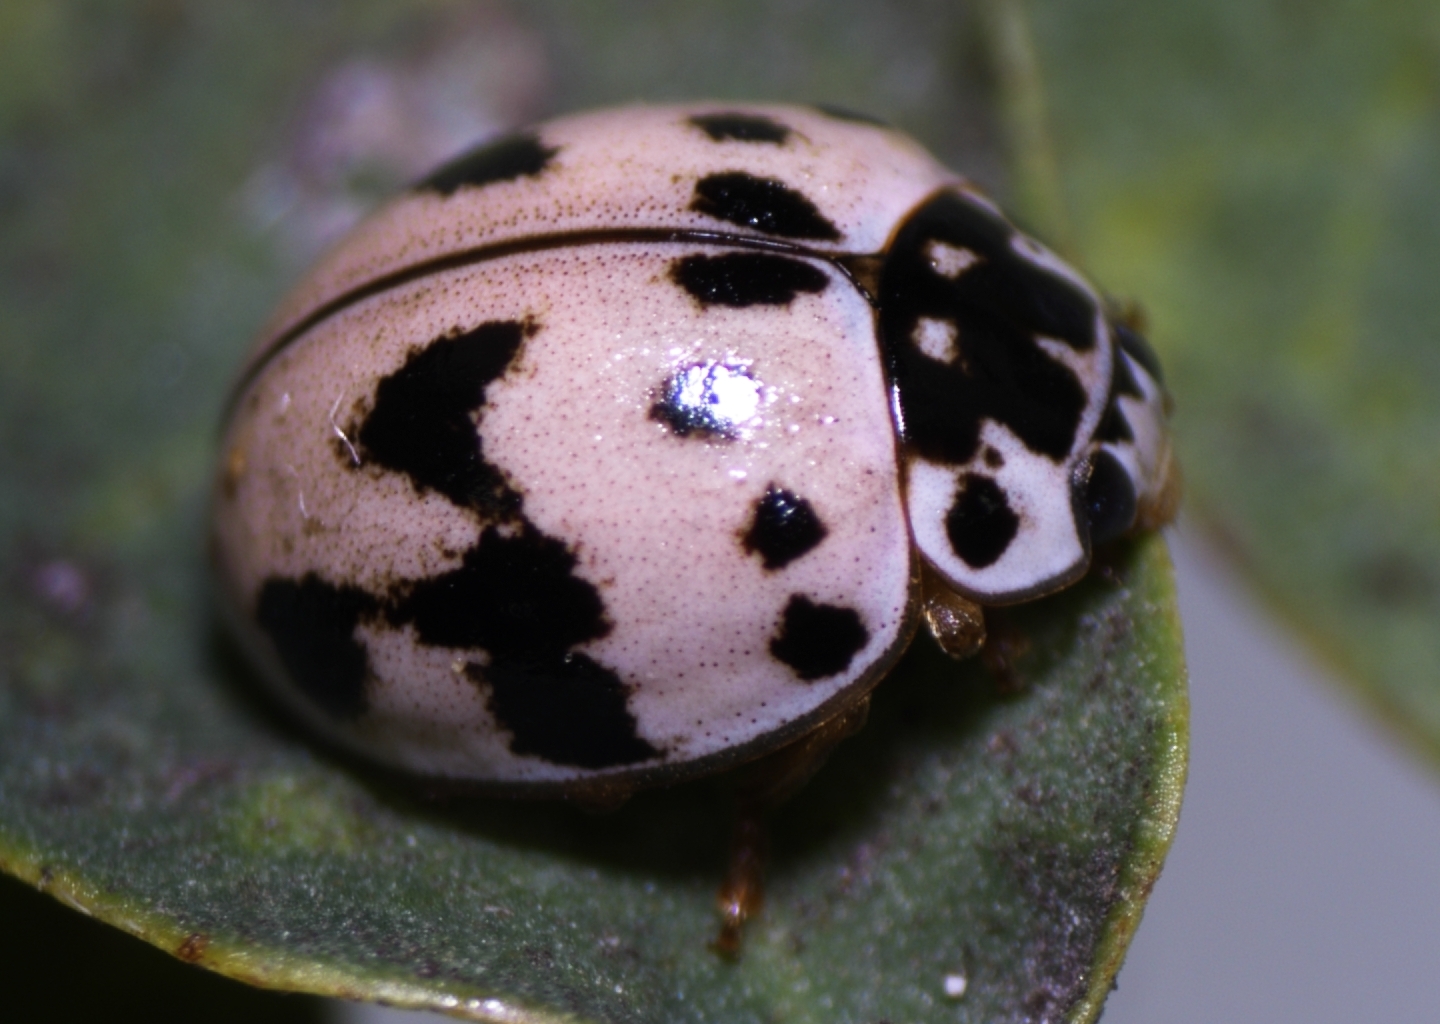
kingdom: Animalia
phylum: Arthropoda
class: Insecta
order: Coleoptera
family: Coccinellidae
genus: Olla
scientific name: Olla v-nigrum
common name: Ashy gray lady beetle
